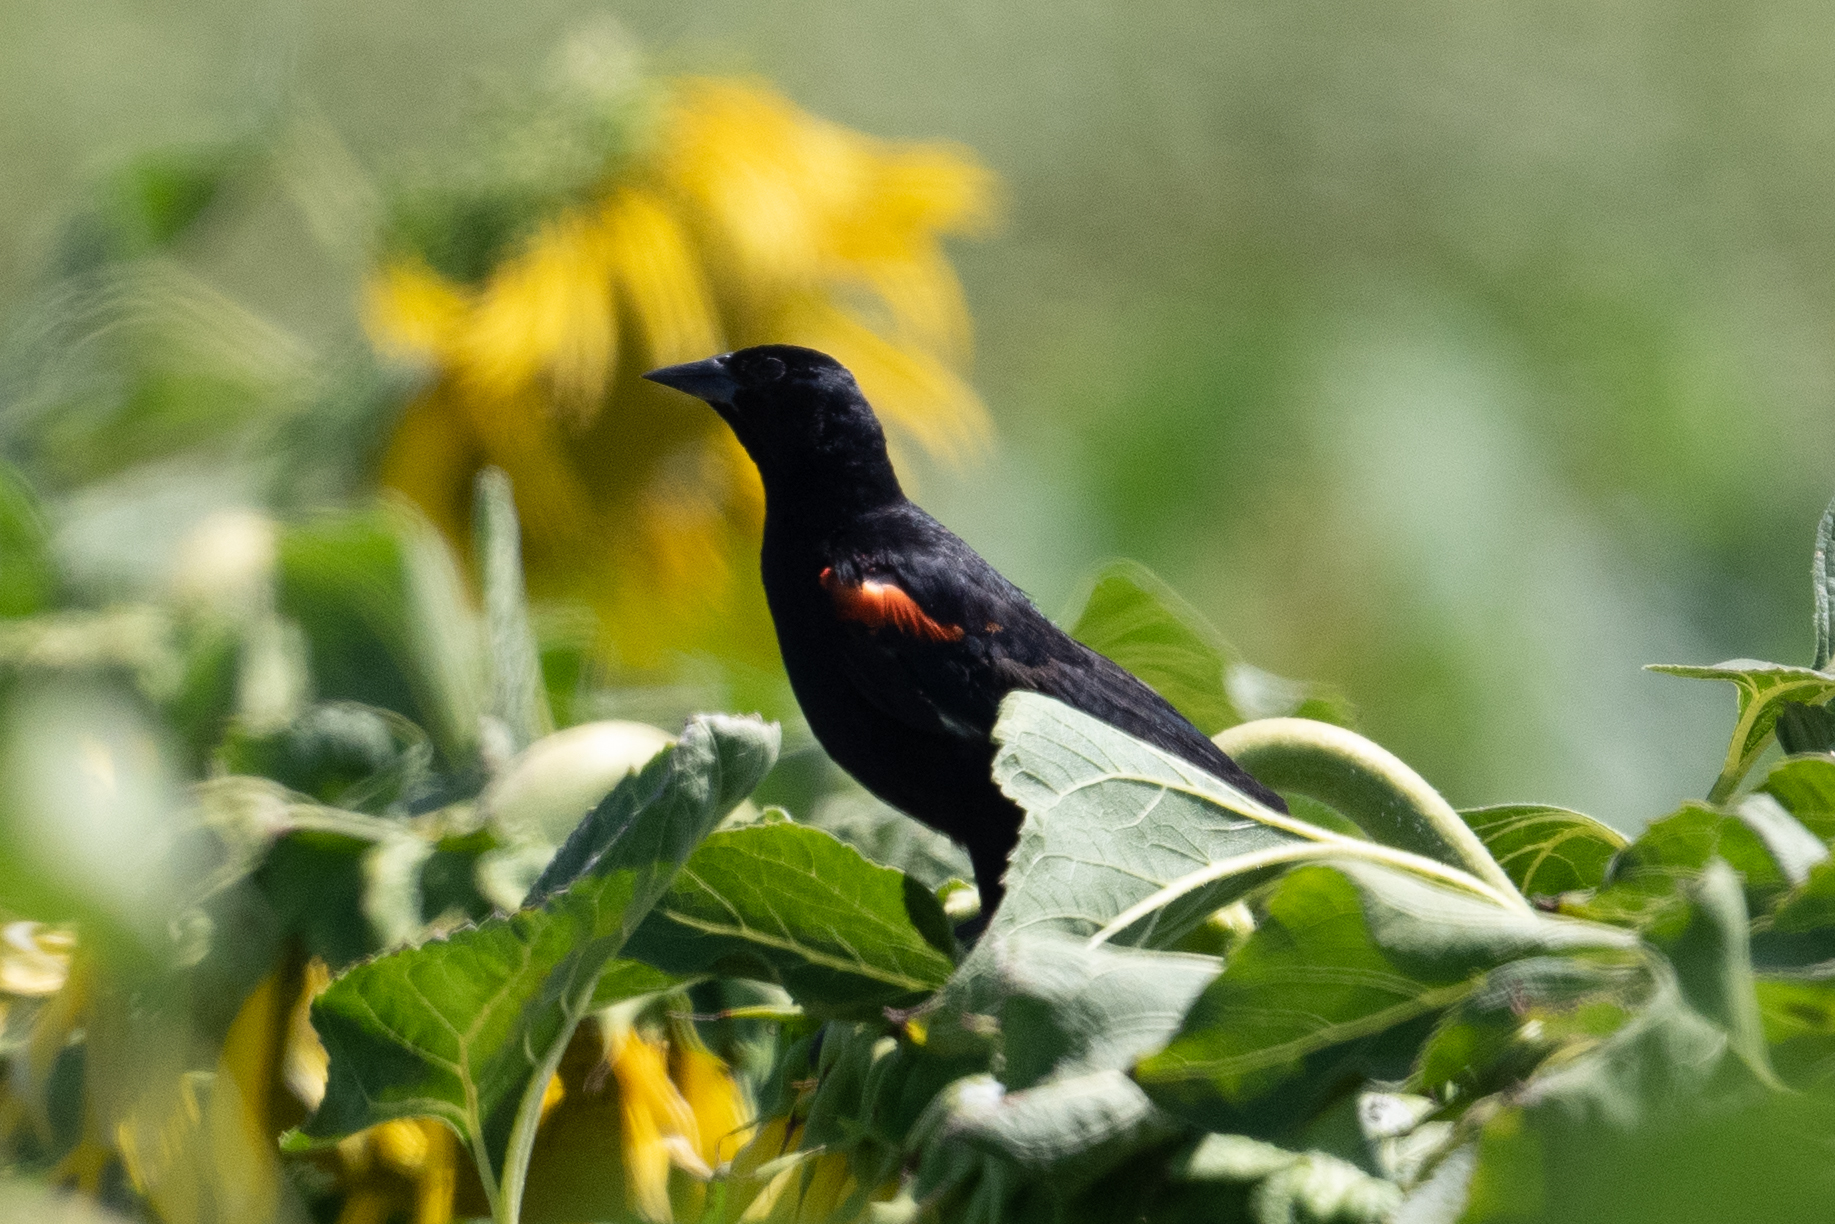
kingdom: Animalia
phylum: Chordata
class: Aves
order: Passeriformes
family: Icteridae
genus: Agelaius
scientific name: Agelaius phoeniceus
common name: Red-winged blackbird
